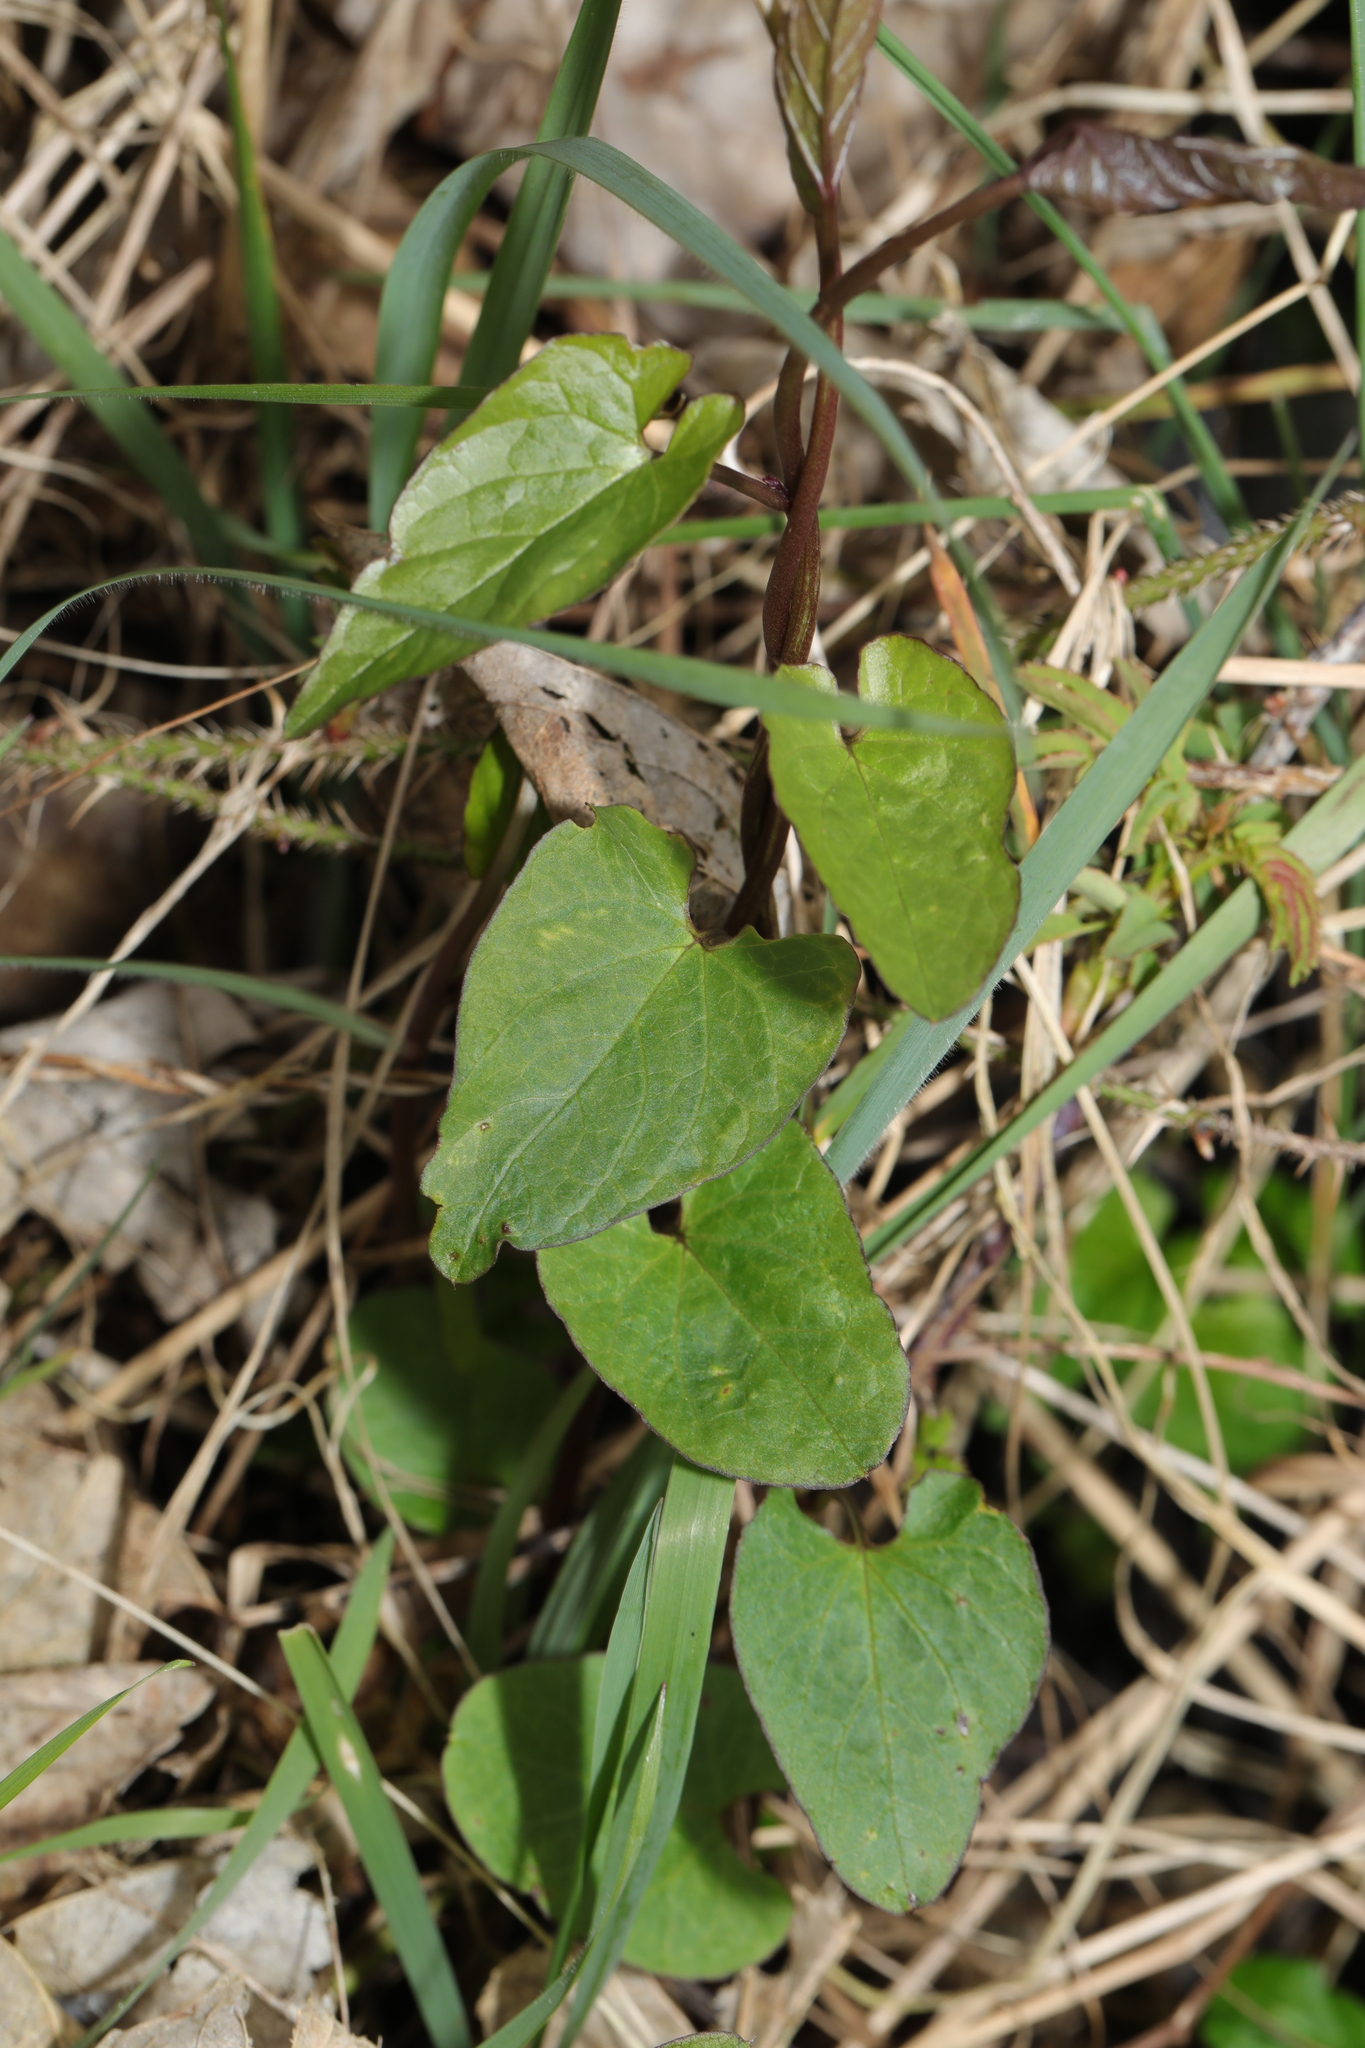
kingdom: Plantae
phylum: Tracheophyta
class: Magnoliopsida
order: Solanales
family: Convolvulaceae
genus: Calystegia
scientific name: Calystegia
